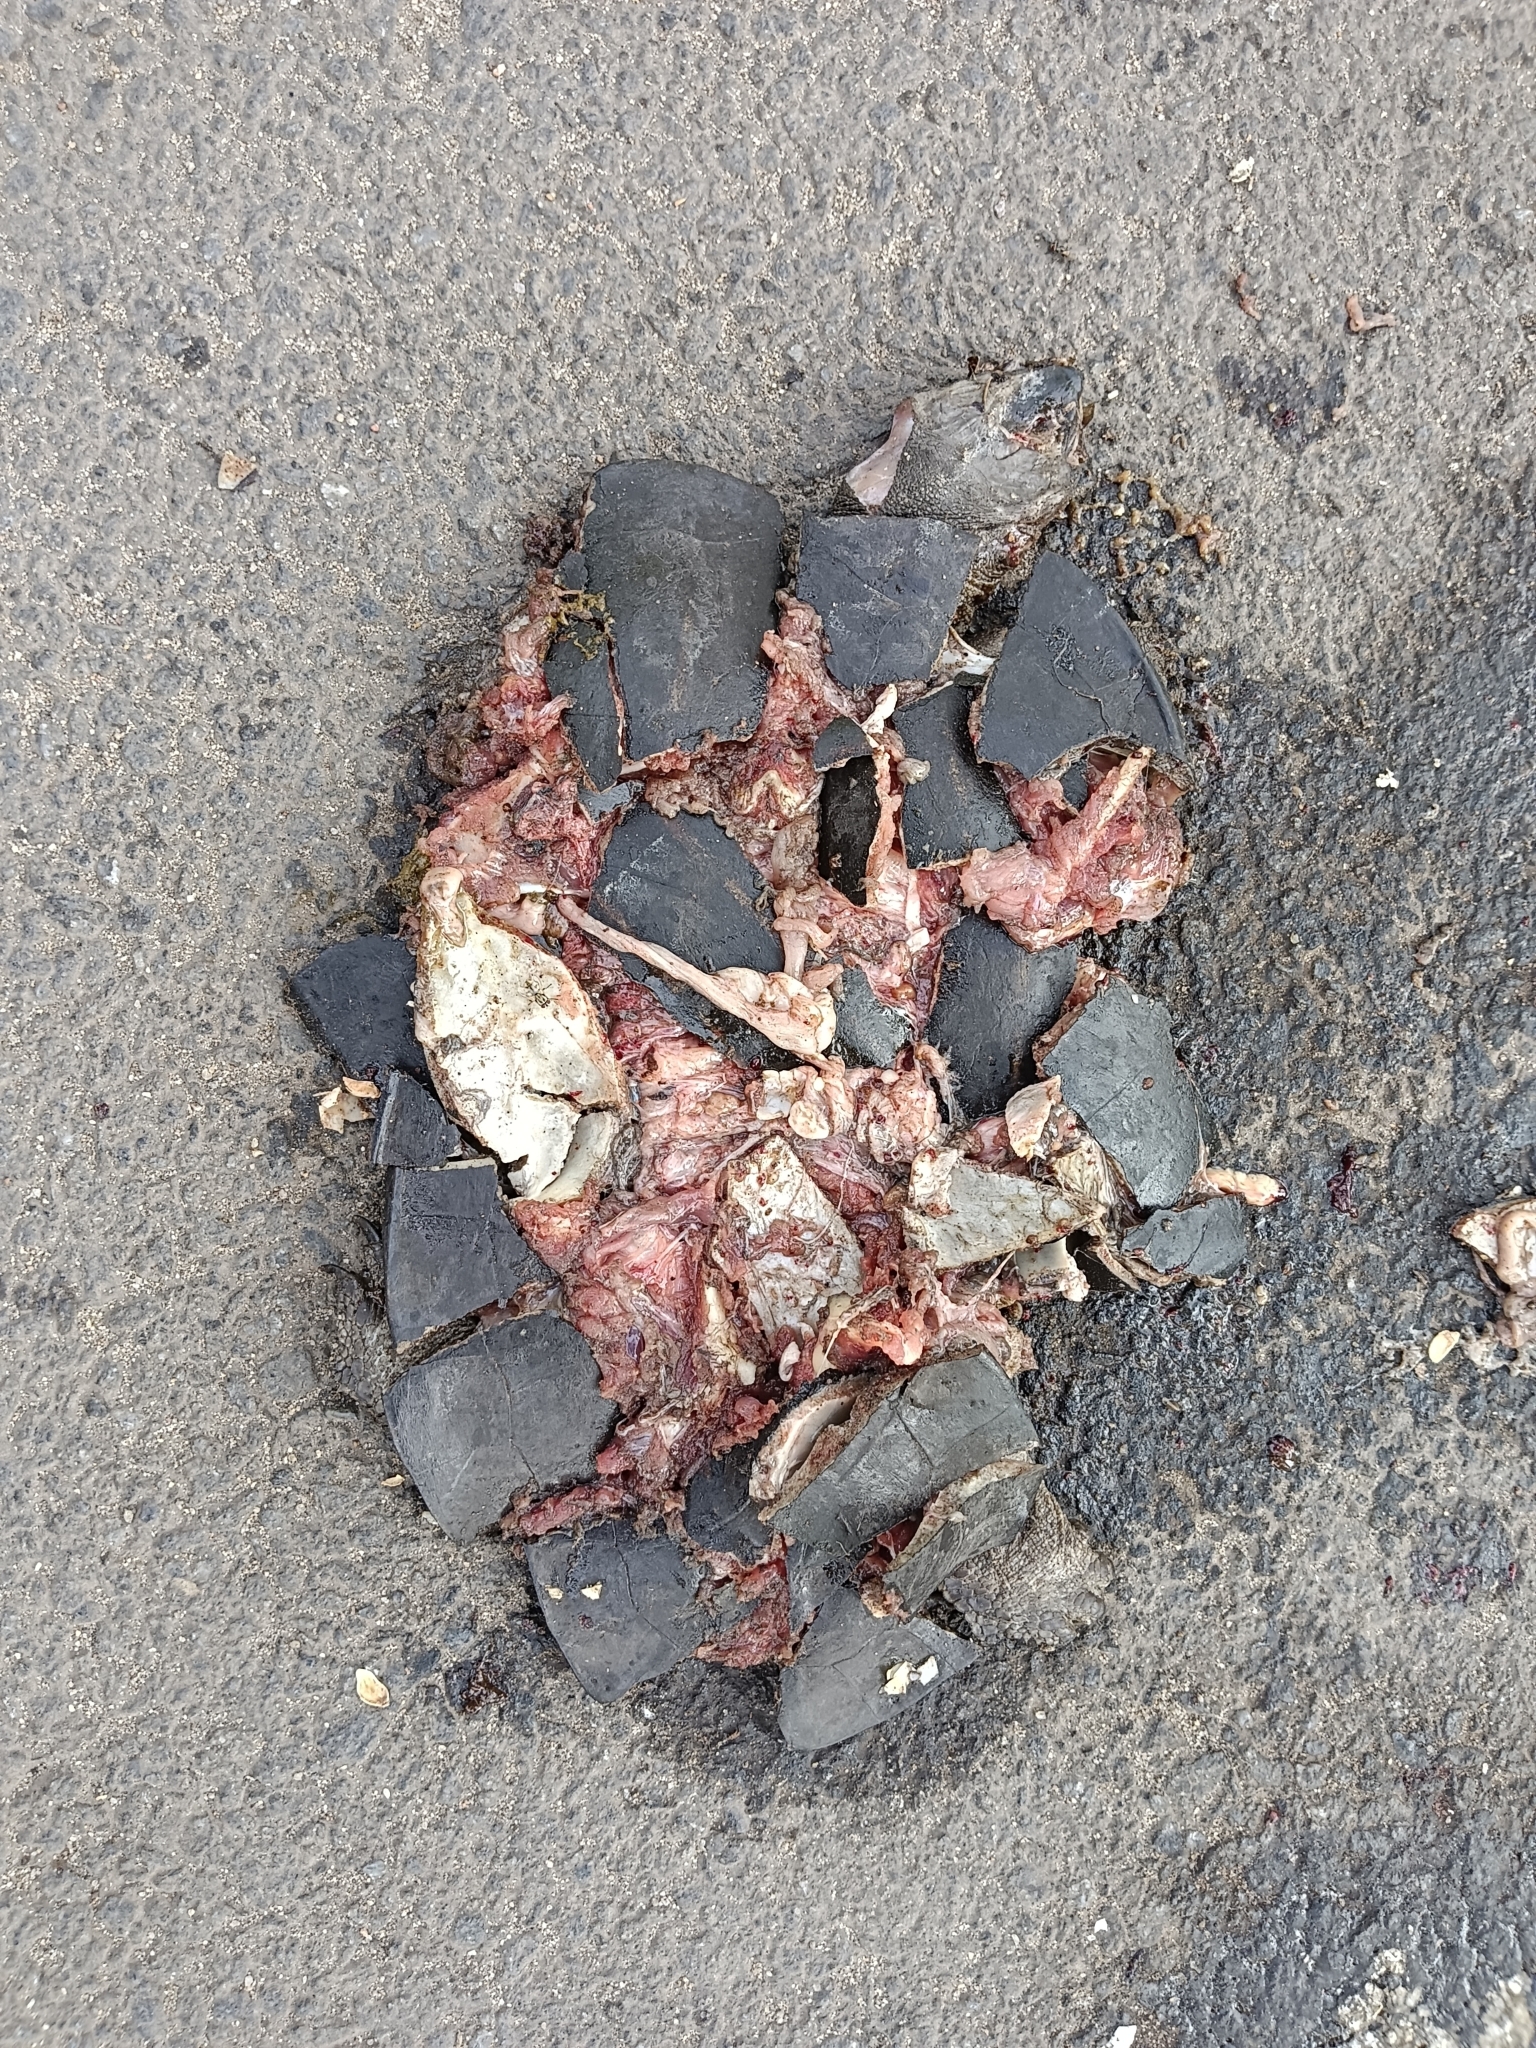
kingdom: Animalia
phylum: Chordata
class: Testudines
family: Geoemydidae
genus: Melanochelys
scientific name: Melanochelys trijuga
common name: Indian black turtle
